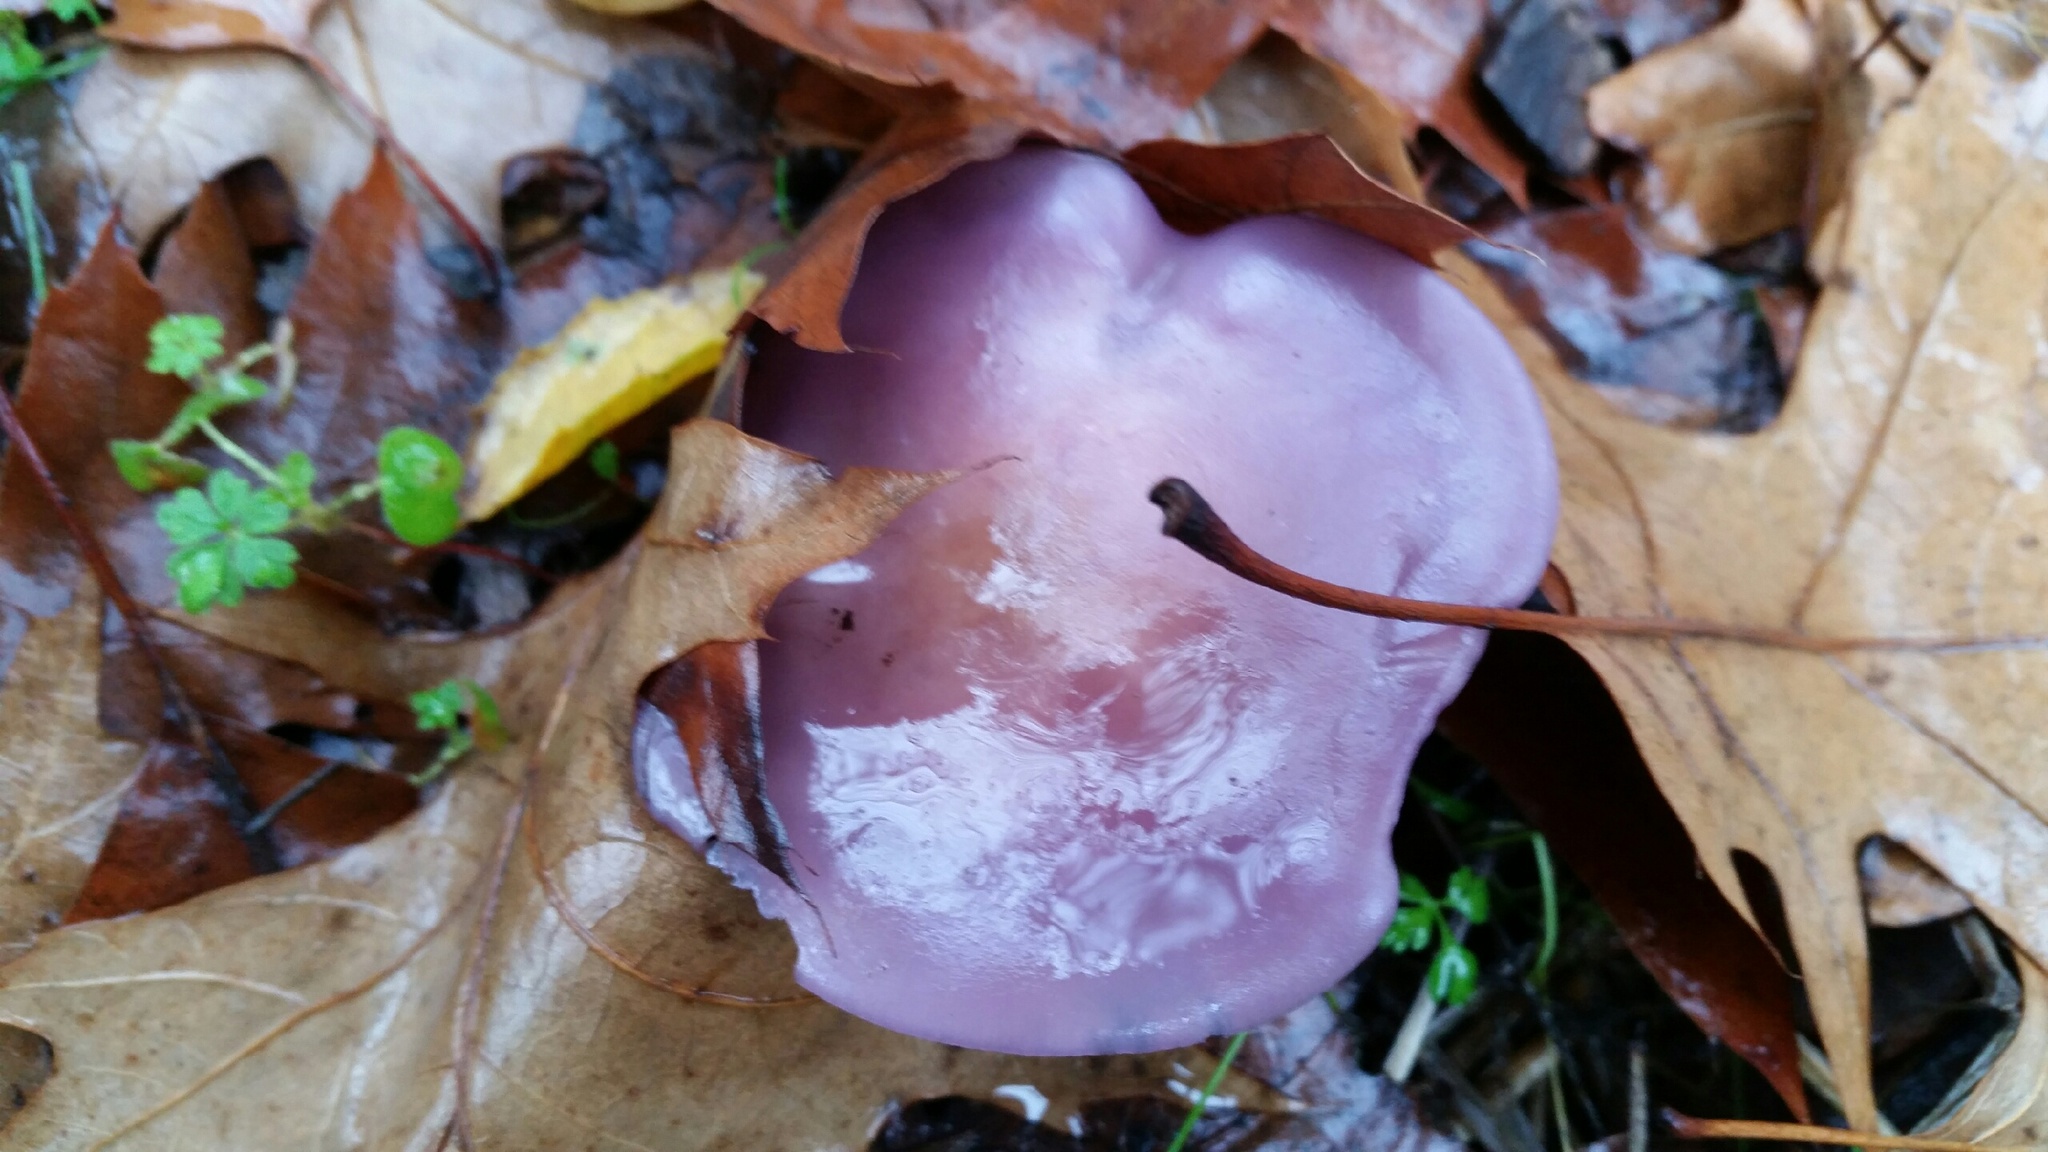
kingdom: Fungi
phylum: Basidiomycota
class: Agaricomycetes
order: Agaricales
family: Tricholomataceae
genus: Collybia
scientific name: Collybia
